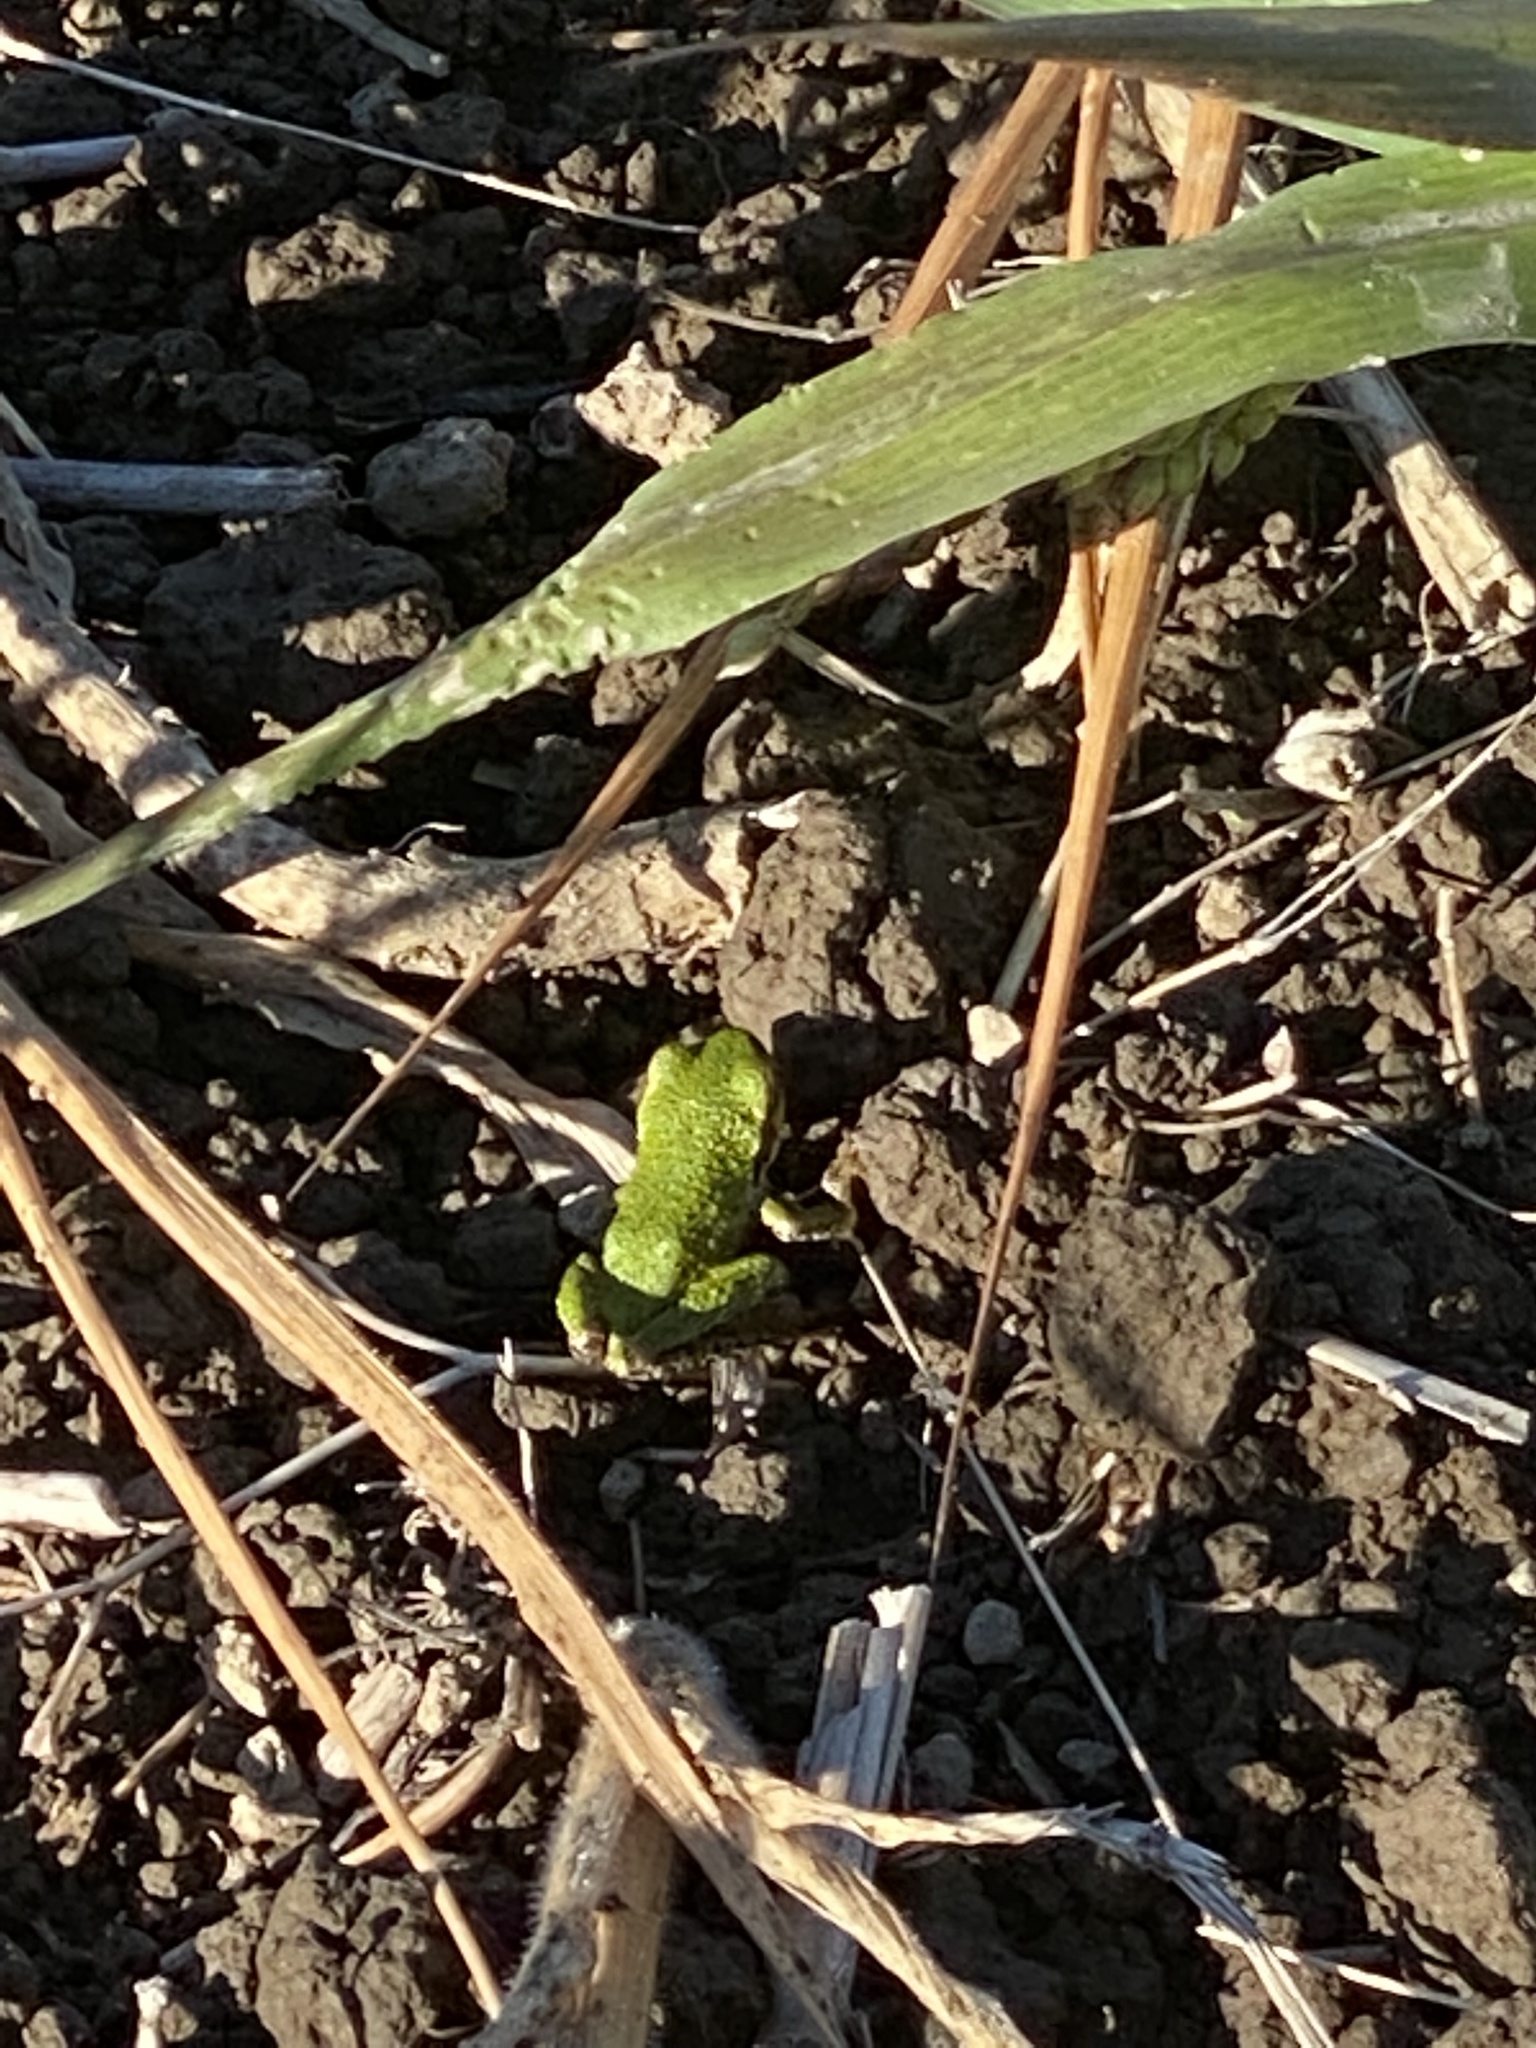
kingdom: Animalia
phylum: Chordata
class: Amphibia
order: Anura
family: Hylidae
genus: Pseudacris
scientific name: Pseudacris regilla
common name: Pacific chorus frog
